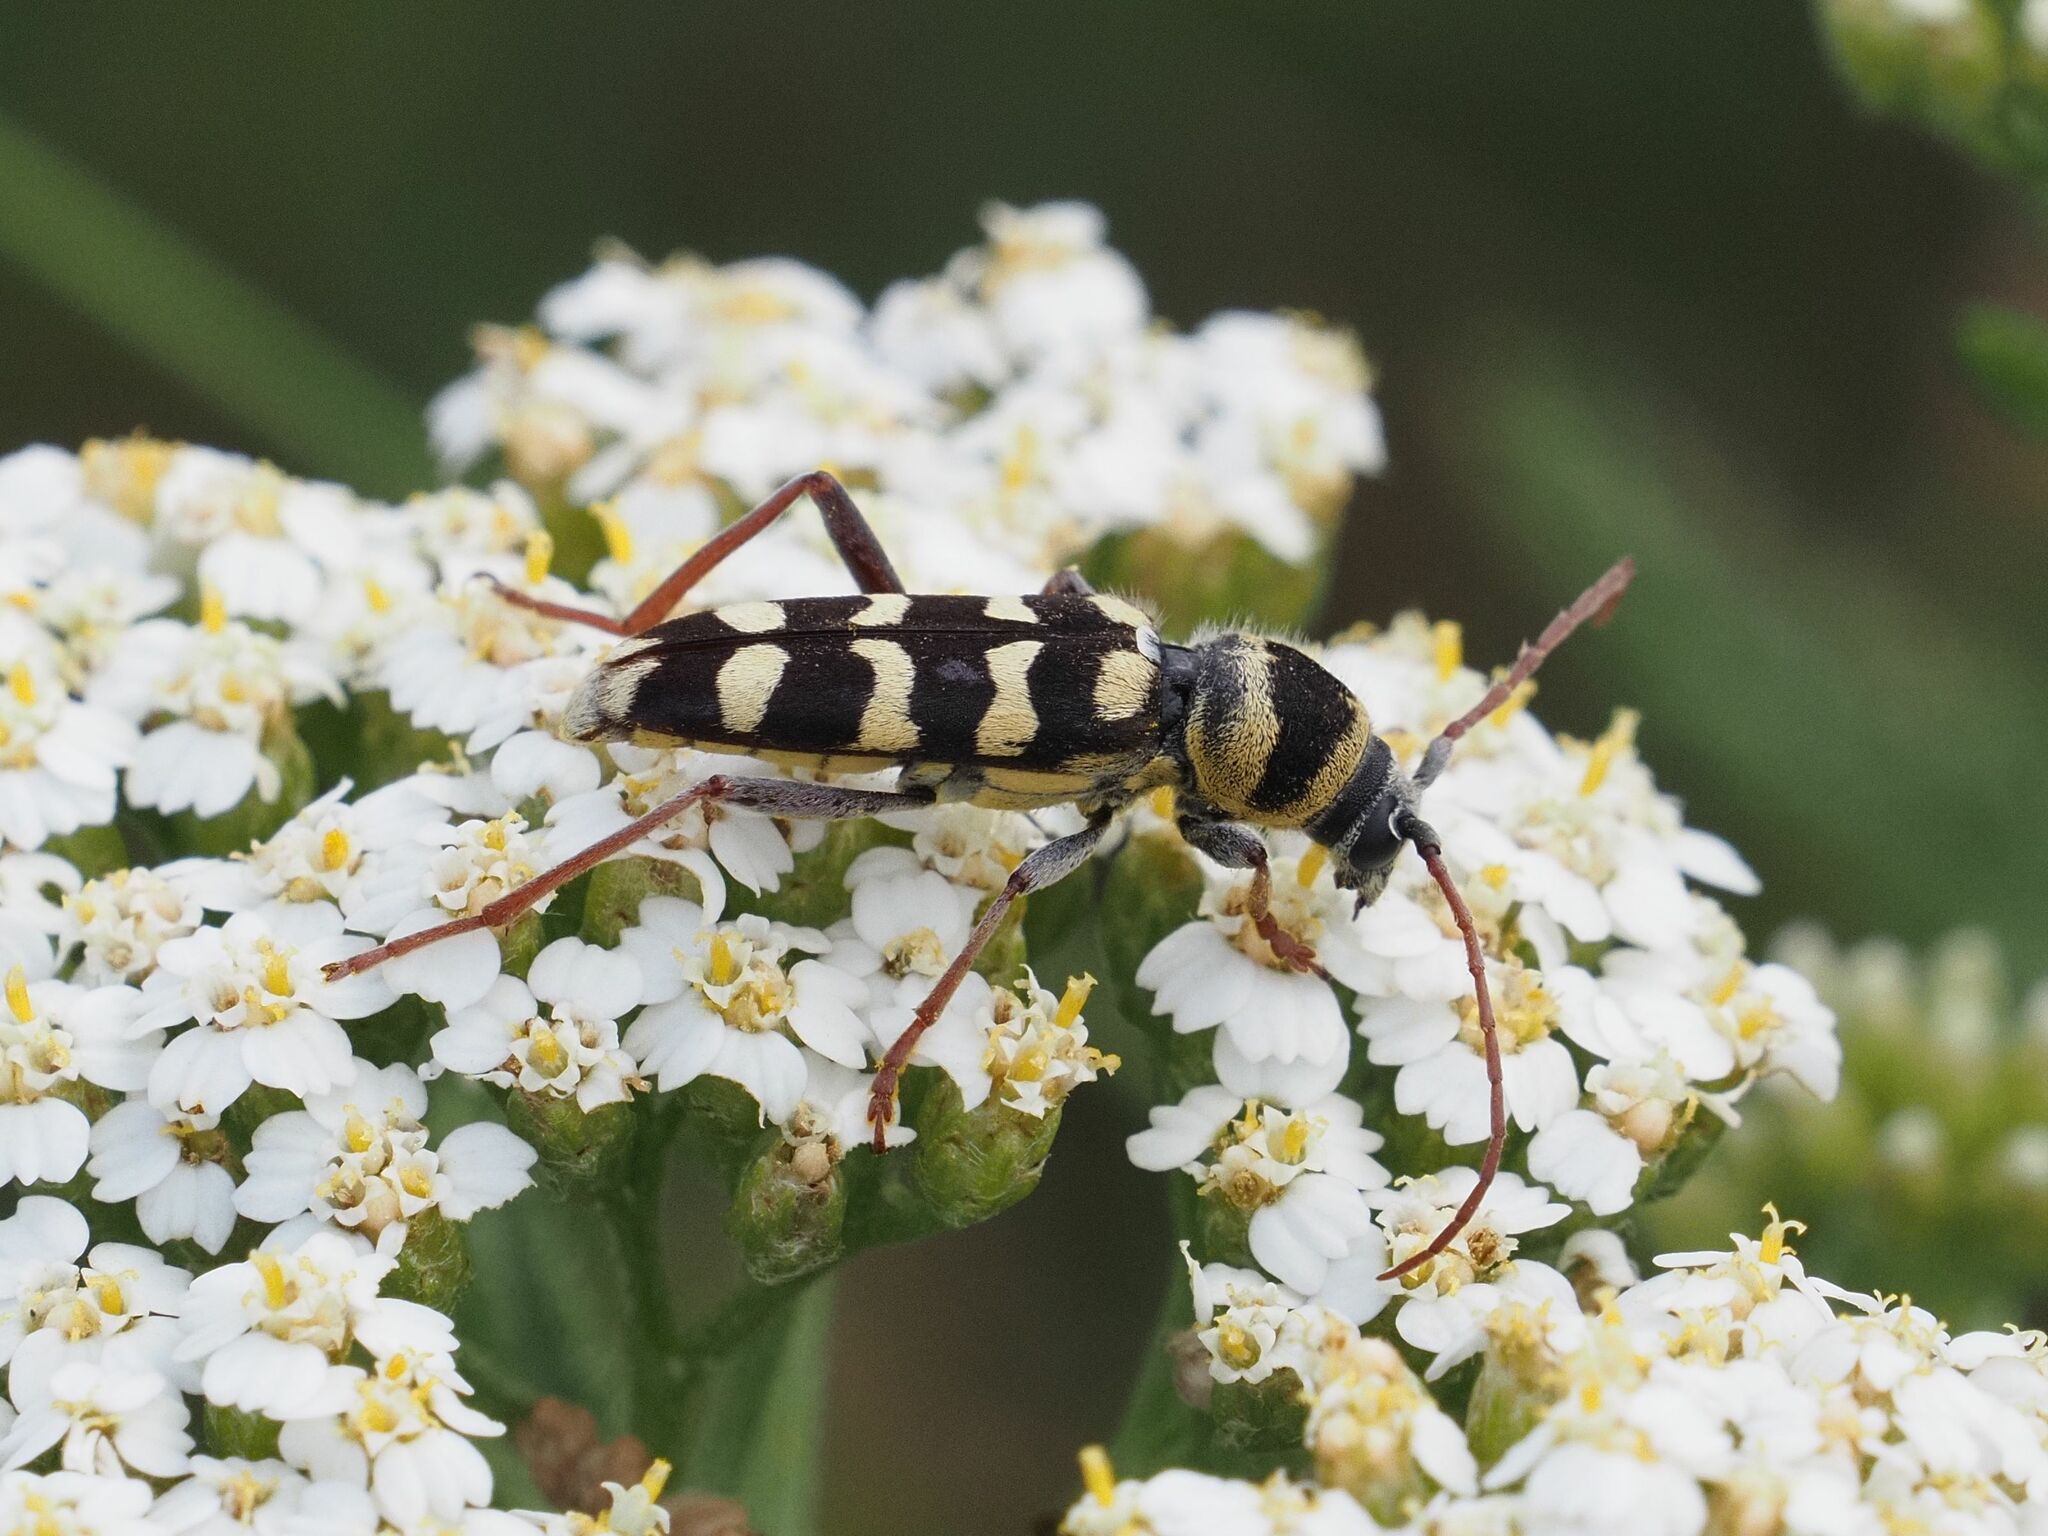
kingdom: Animalia
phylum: Arthropoda
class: Insecta
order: Coleoptera
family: Cerambycidae
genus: Plagionotus
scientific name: Plagionotus floralis
